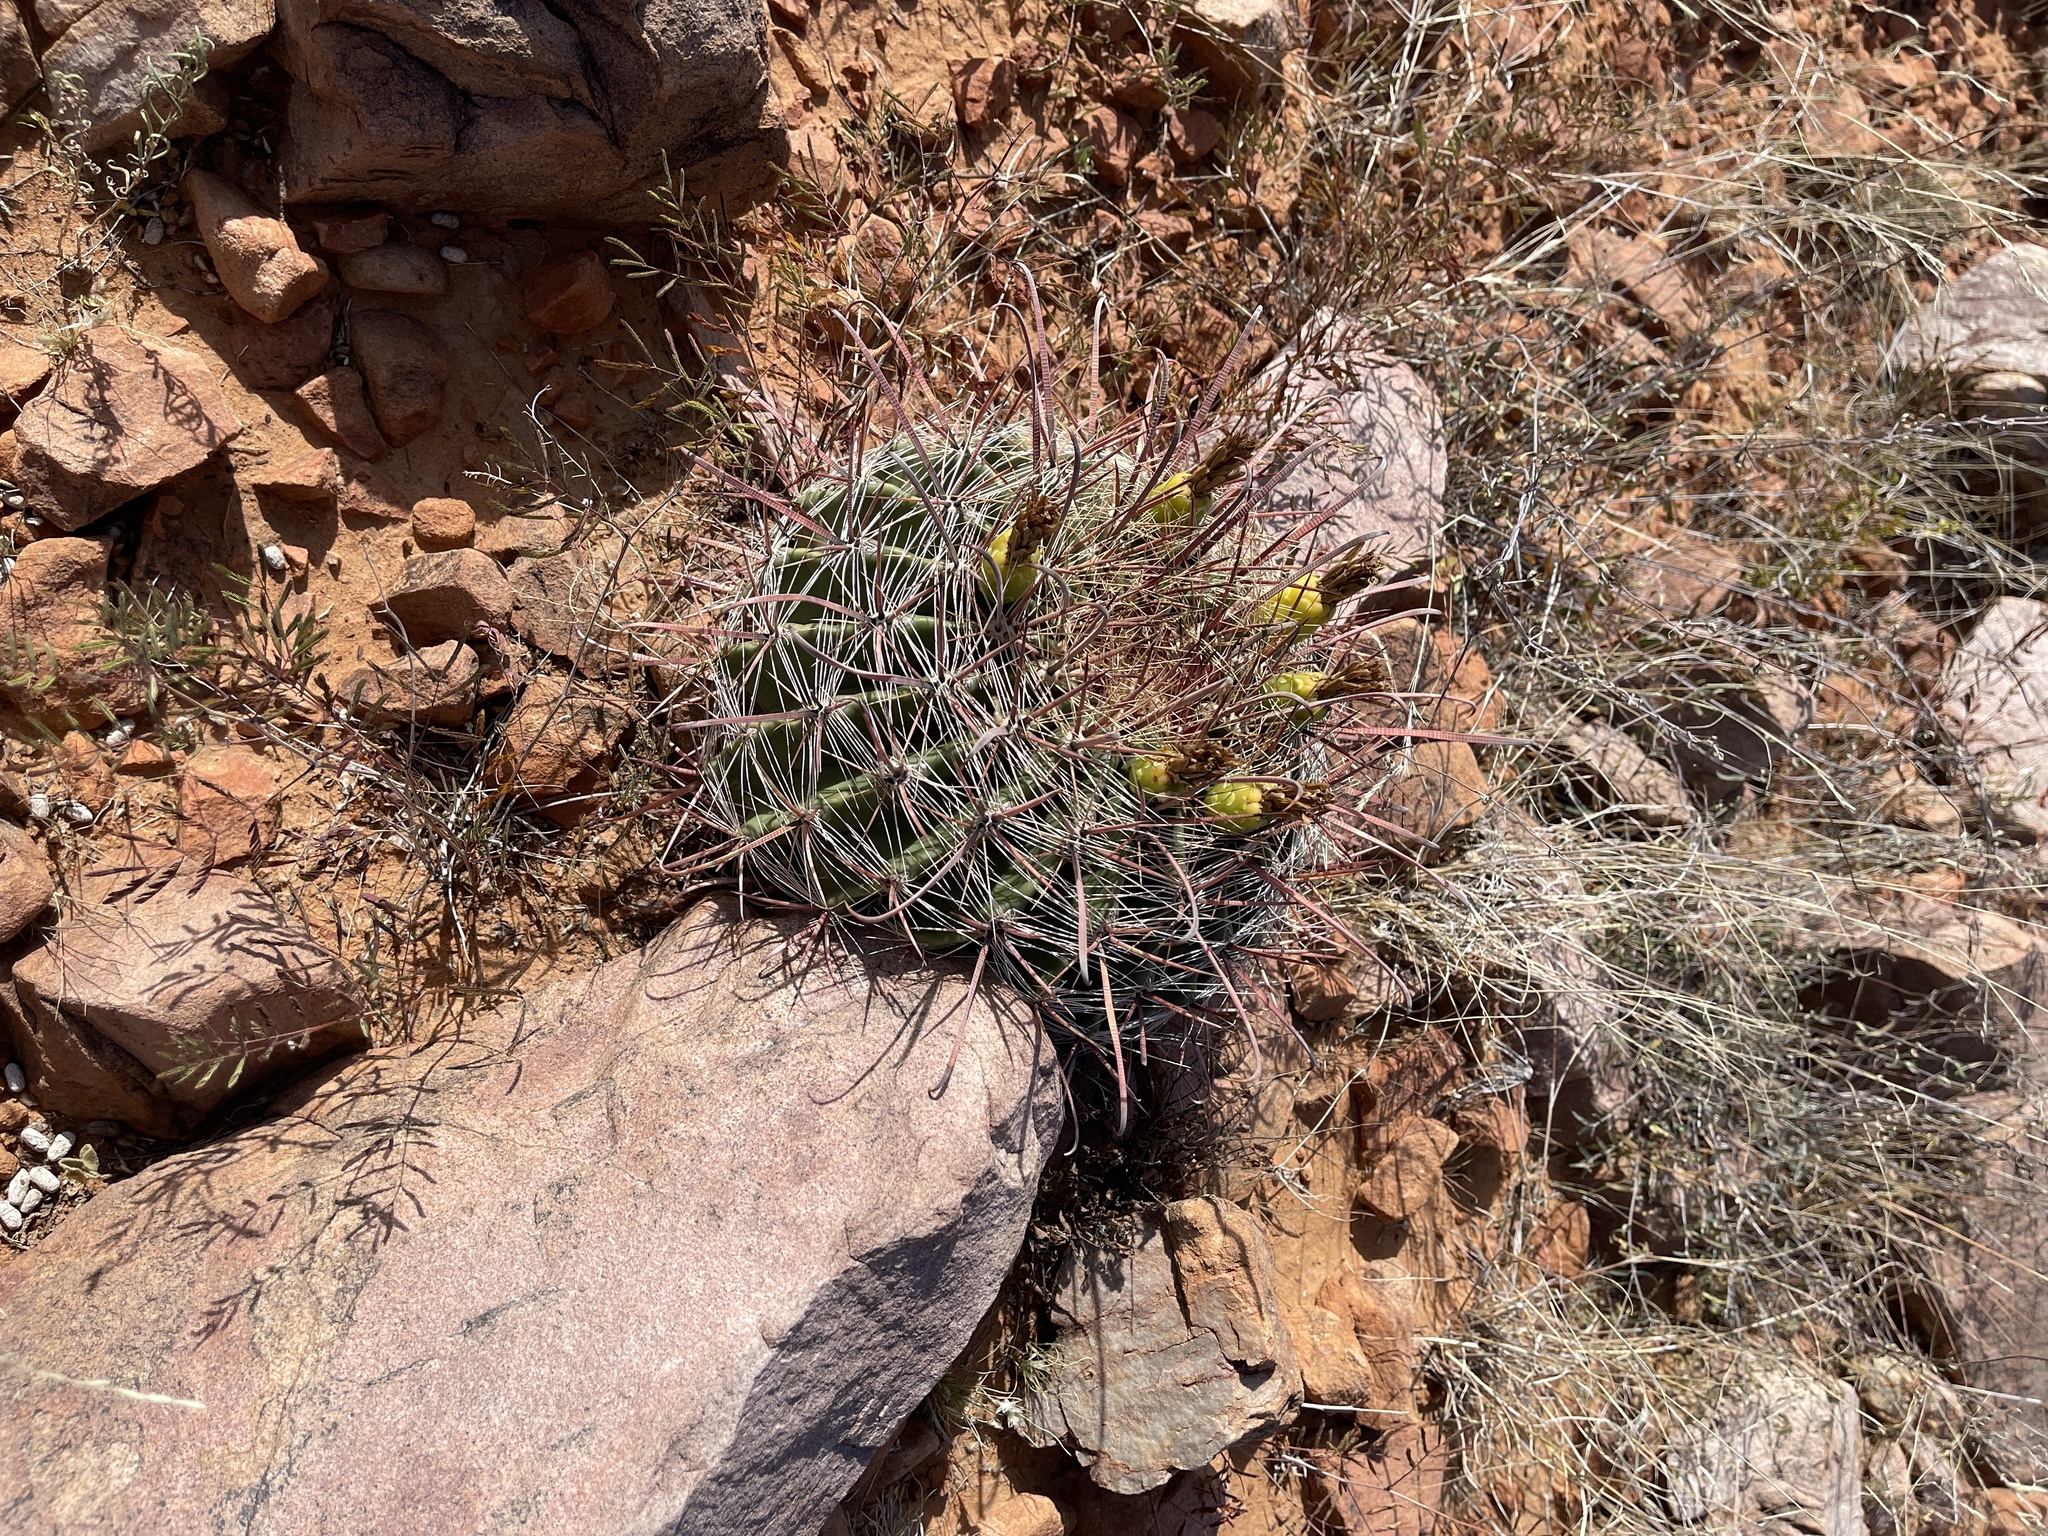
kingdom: Plantae
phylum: Tracheophyta
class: Magnoliopsida
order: Caryophyllales
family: Cactaceae
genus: Ferocactus
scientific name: Ferocactus wislizeni
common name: Candy barrel cactus
